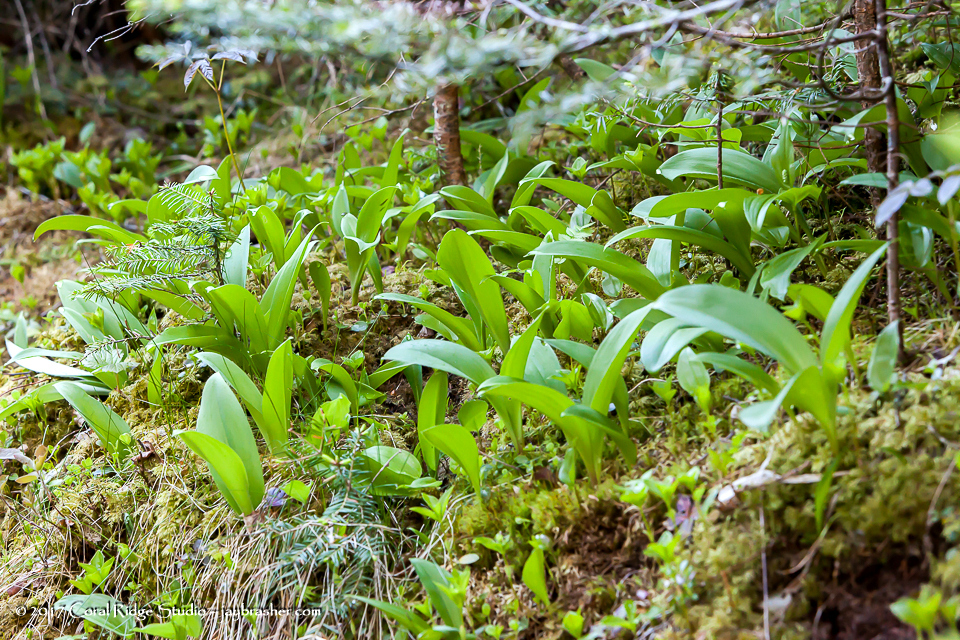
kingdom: Plantae
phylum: Tracheophyta
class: Liliopsida
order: Liliales
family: Liliaceae
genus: Clintonia
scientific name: Clintonia borealis
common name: Yellow clintonia
